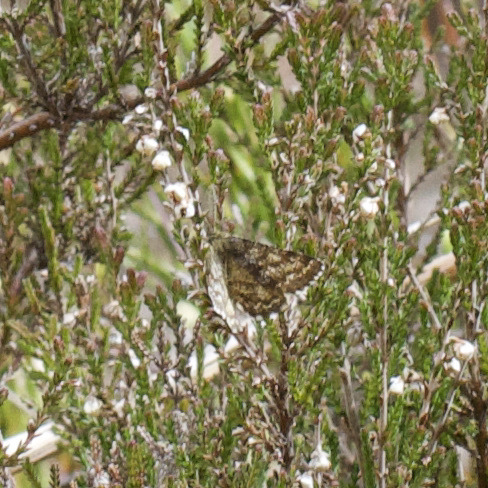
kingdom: Animalia
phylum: Arthropoda
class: Insecta
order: Lepidoptera
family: Geometridae
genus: Ematurga
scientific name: Ematurga atomaria
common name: Common heath
